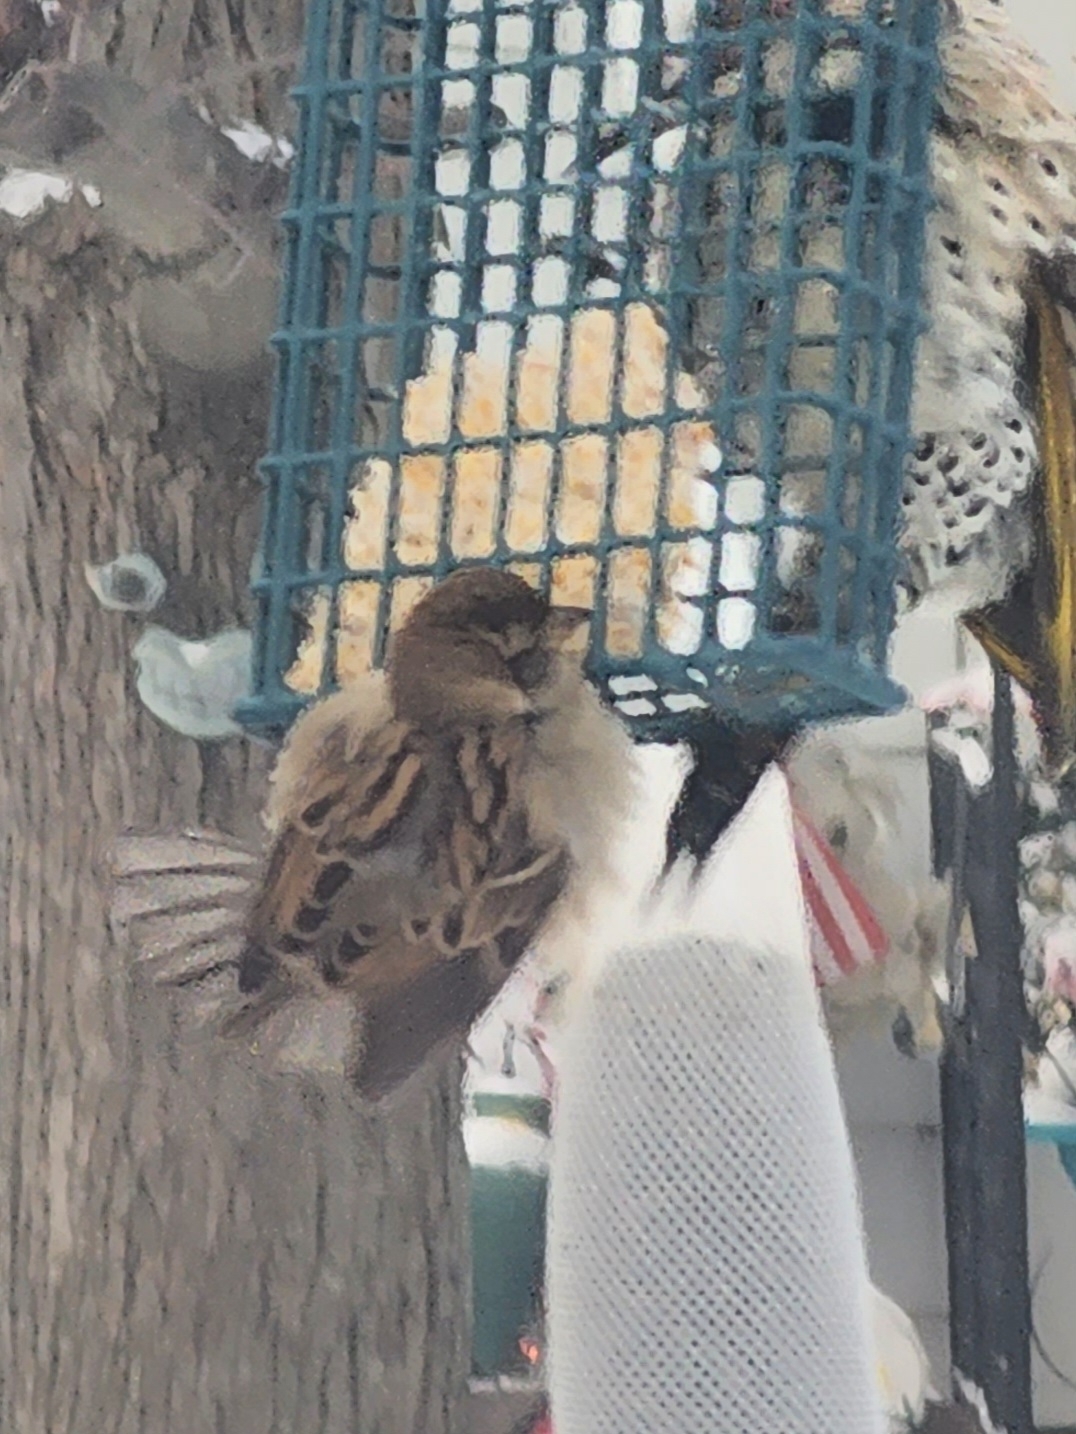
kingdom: Animalia
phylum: Chordata
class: Aves
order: Passeriformes
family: Passeridae
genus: Passer
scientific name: Passer domesticus
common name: House sparrow
